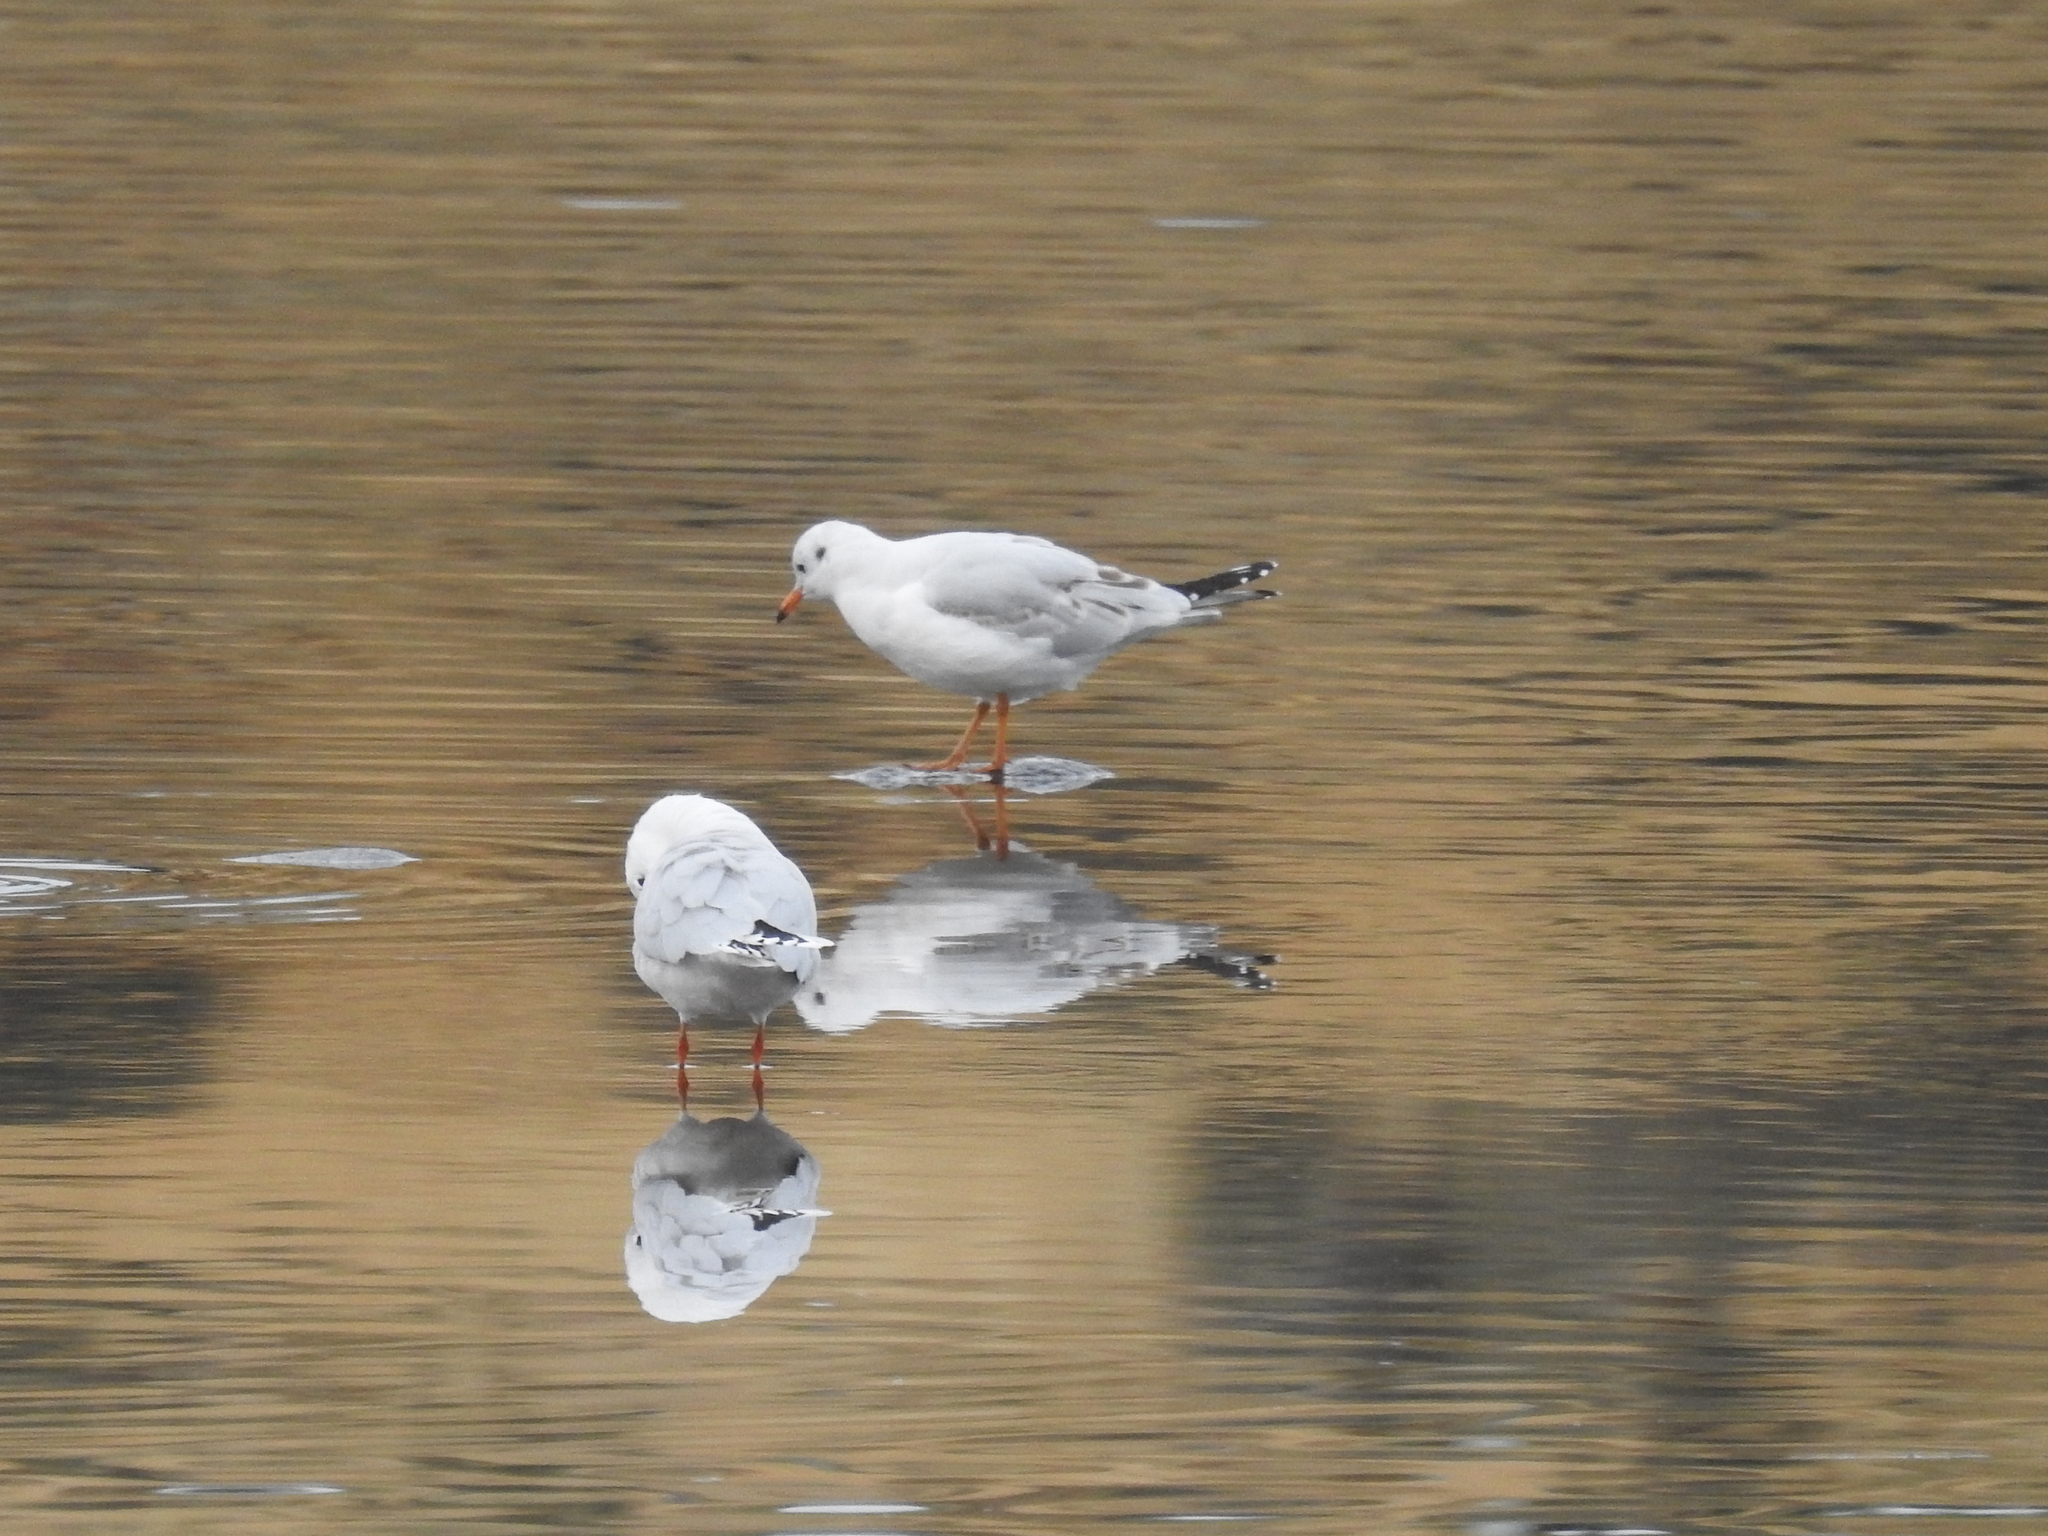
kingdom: Animalia
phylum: Chordata
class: Aves
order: Charadriiformes
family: Laridae
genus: Chroicocephalus
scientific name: Chroicocephalus maculipennis
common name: Brown-hooded gull
